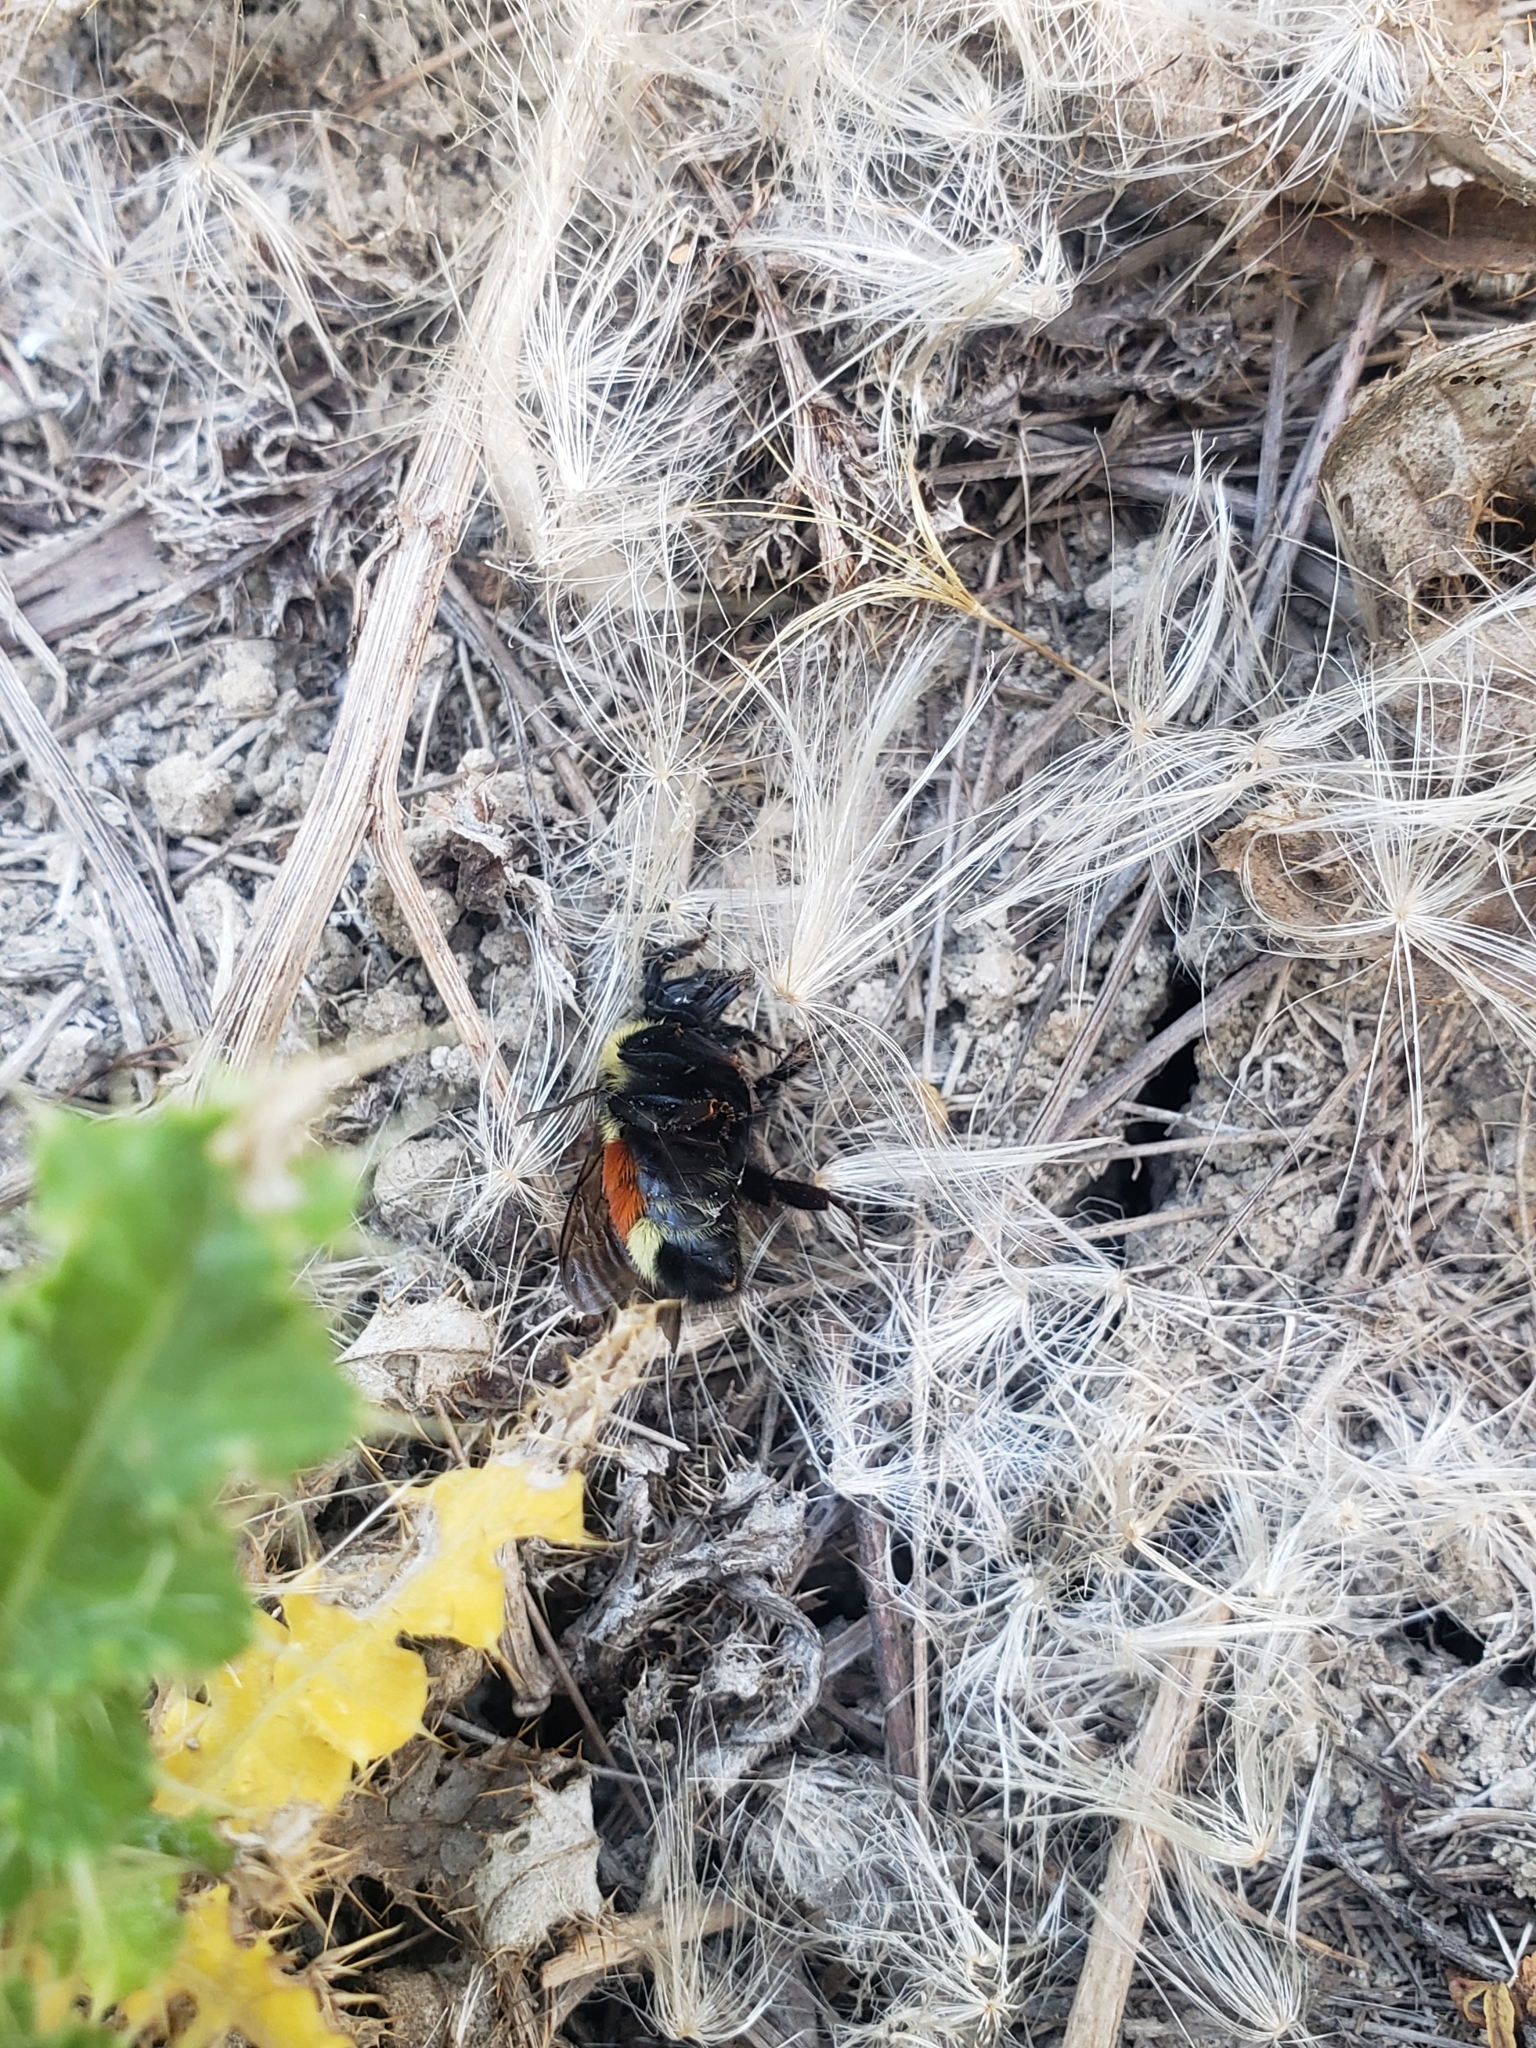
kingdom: Animalia
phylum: Arthropoda
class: Insecta
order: Hymenoptera
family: Apidae
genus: Bombus
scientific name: Bombus huntii
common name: Hunt bumble bee
